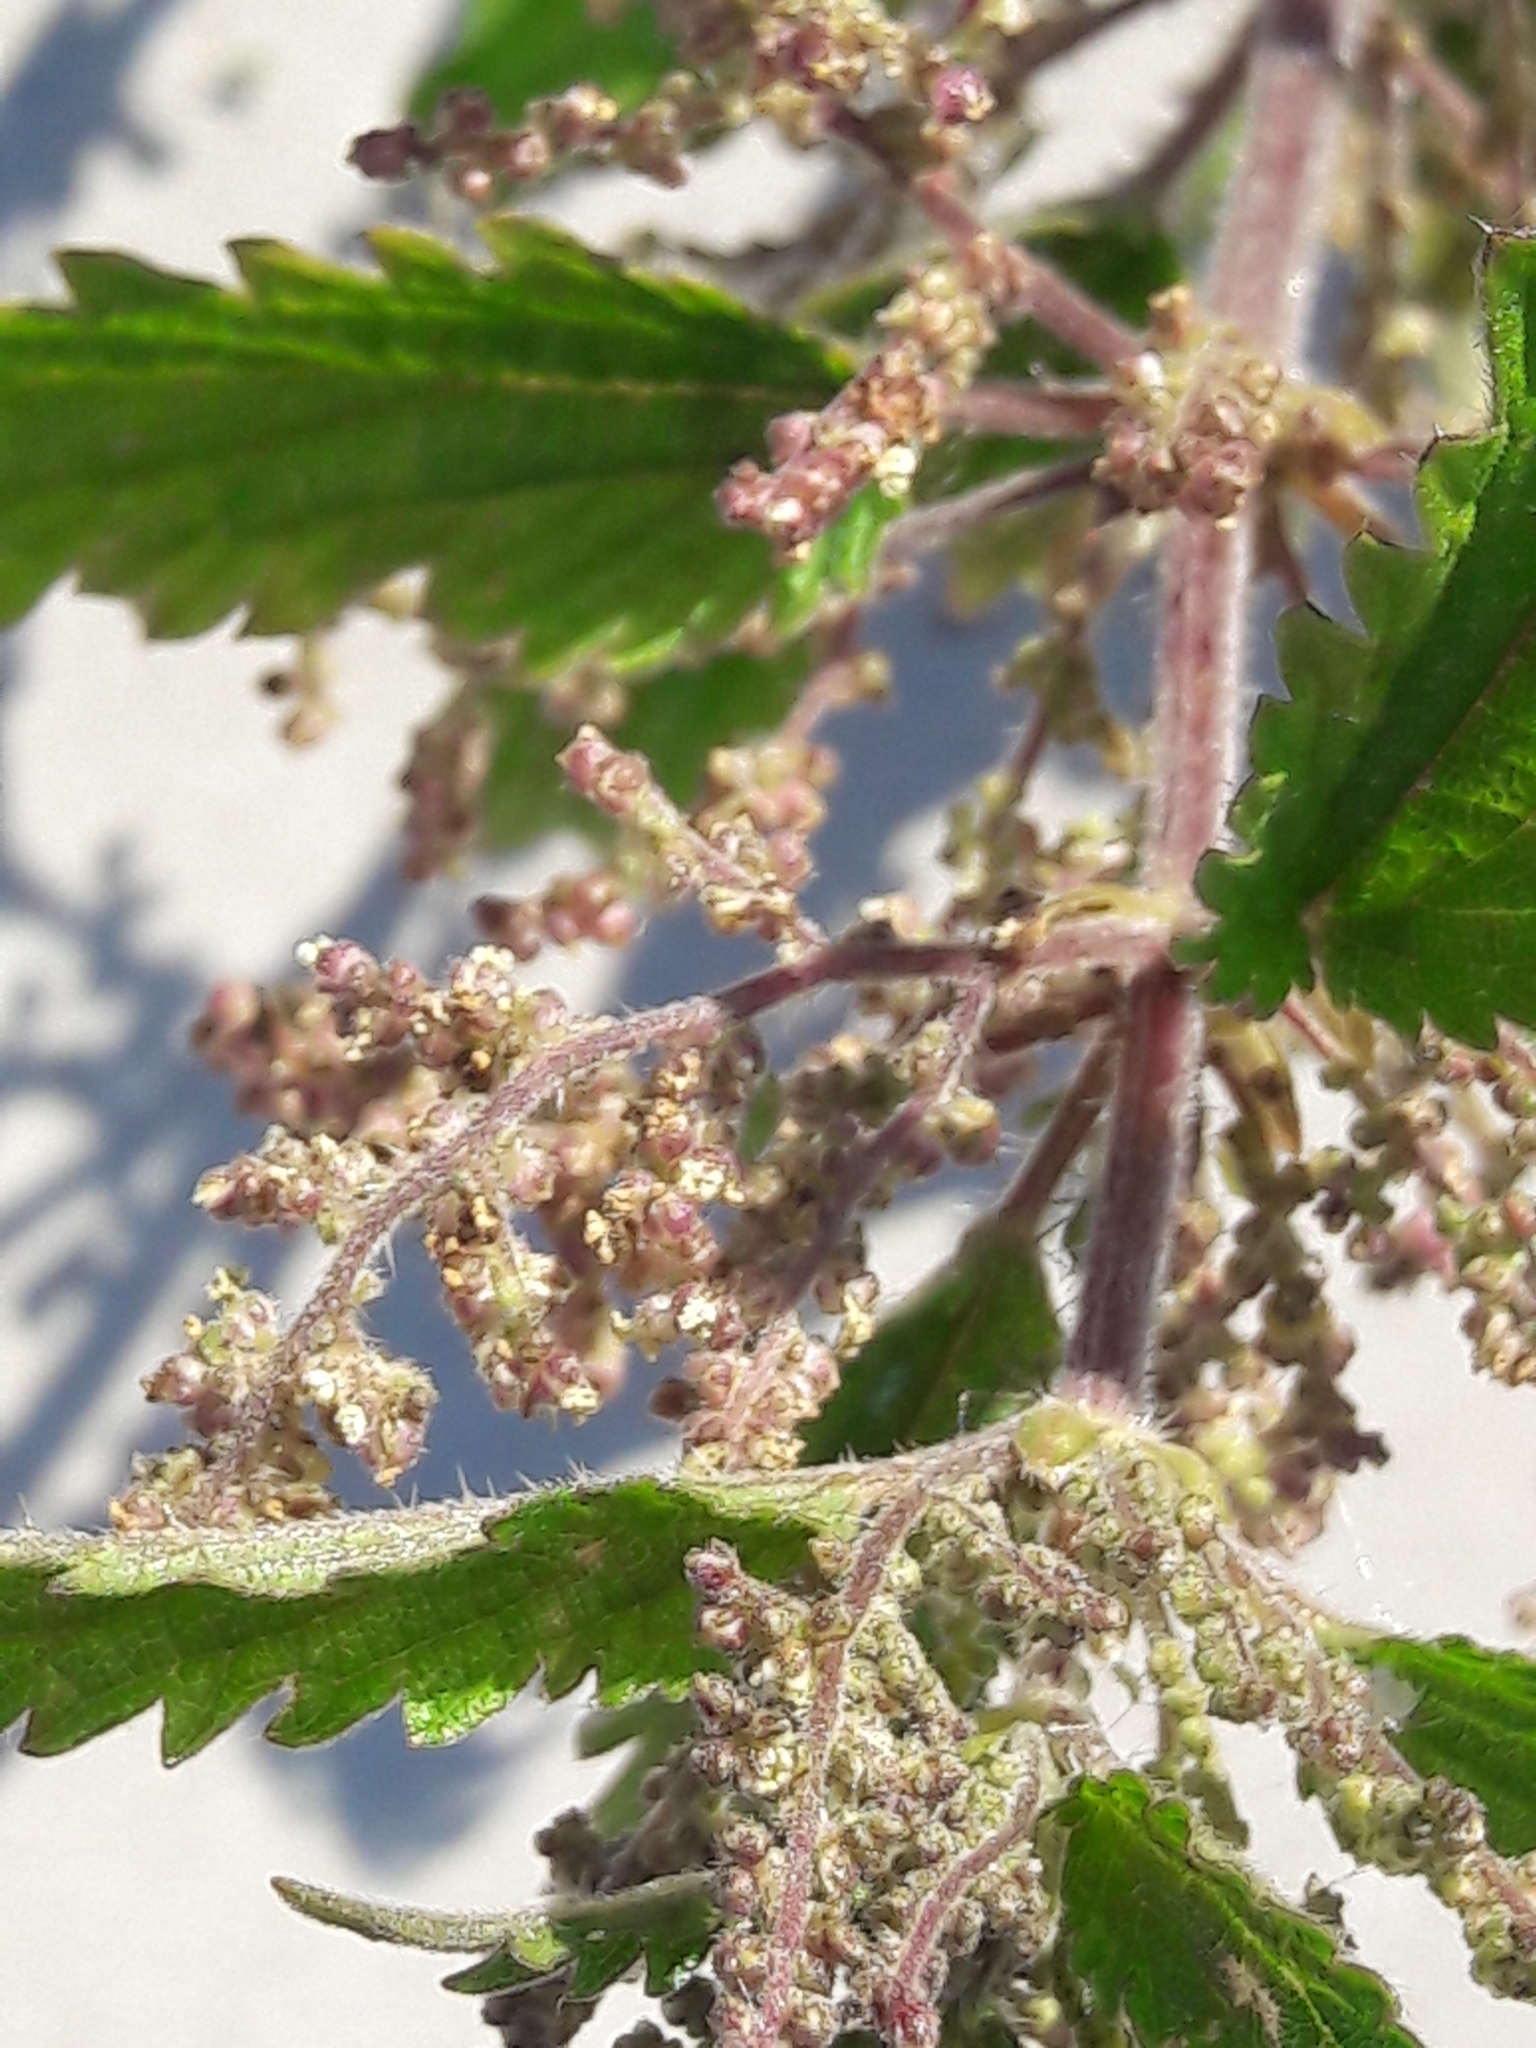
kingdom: Plantae
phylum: Tracheophyta
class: Magnoliopsida
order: Rosales
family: Urticaceae
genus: Urtica
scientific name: Urtica dioica
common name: Common nettle
